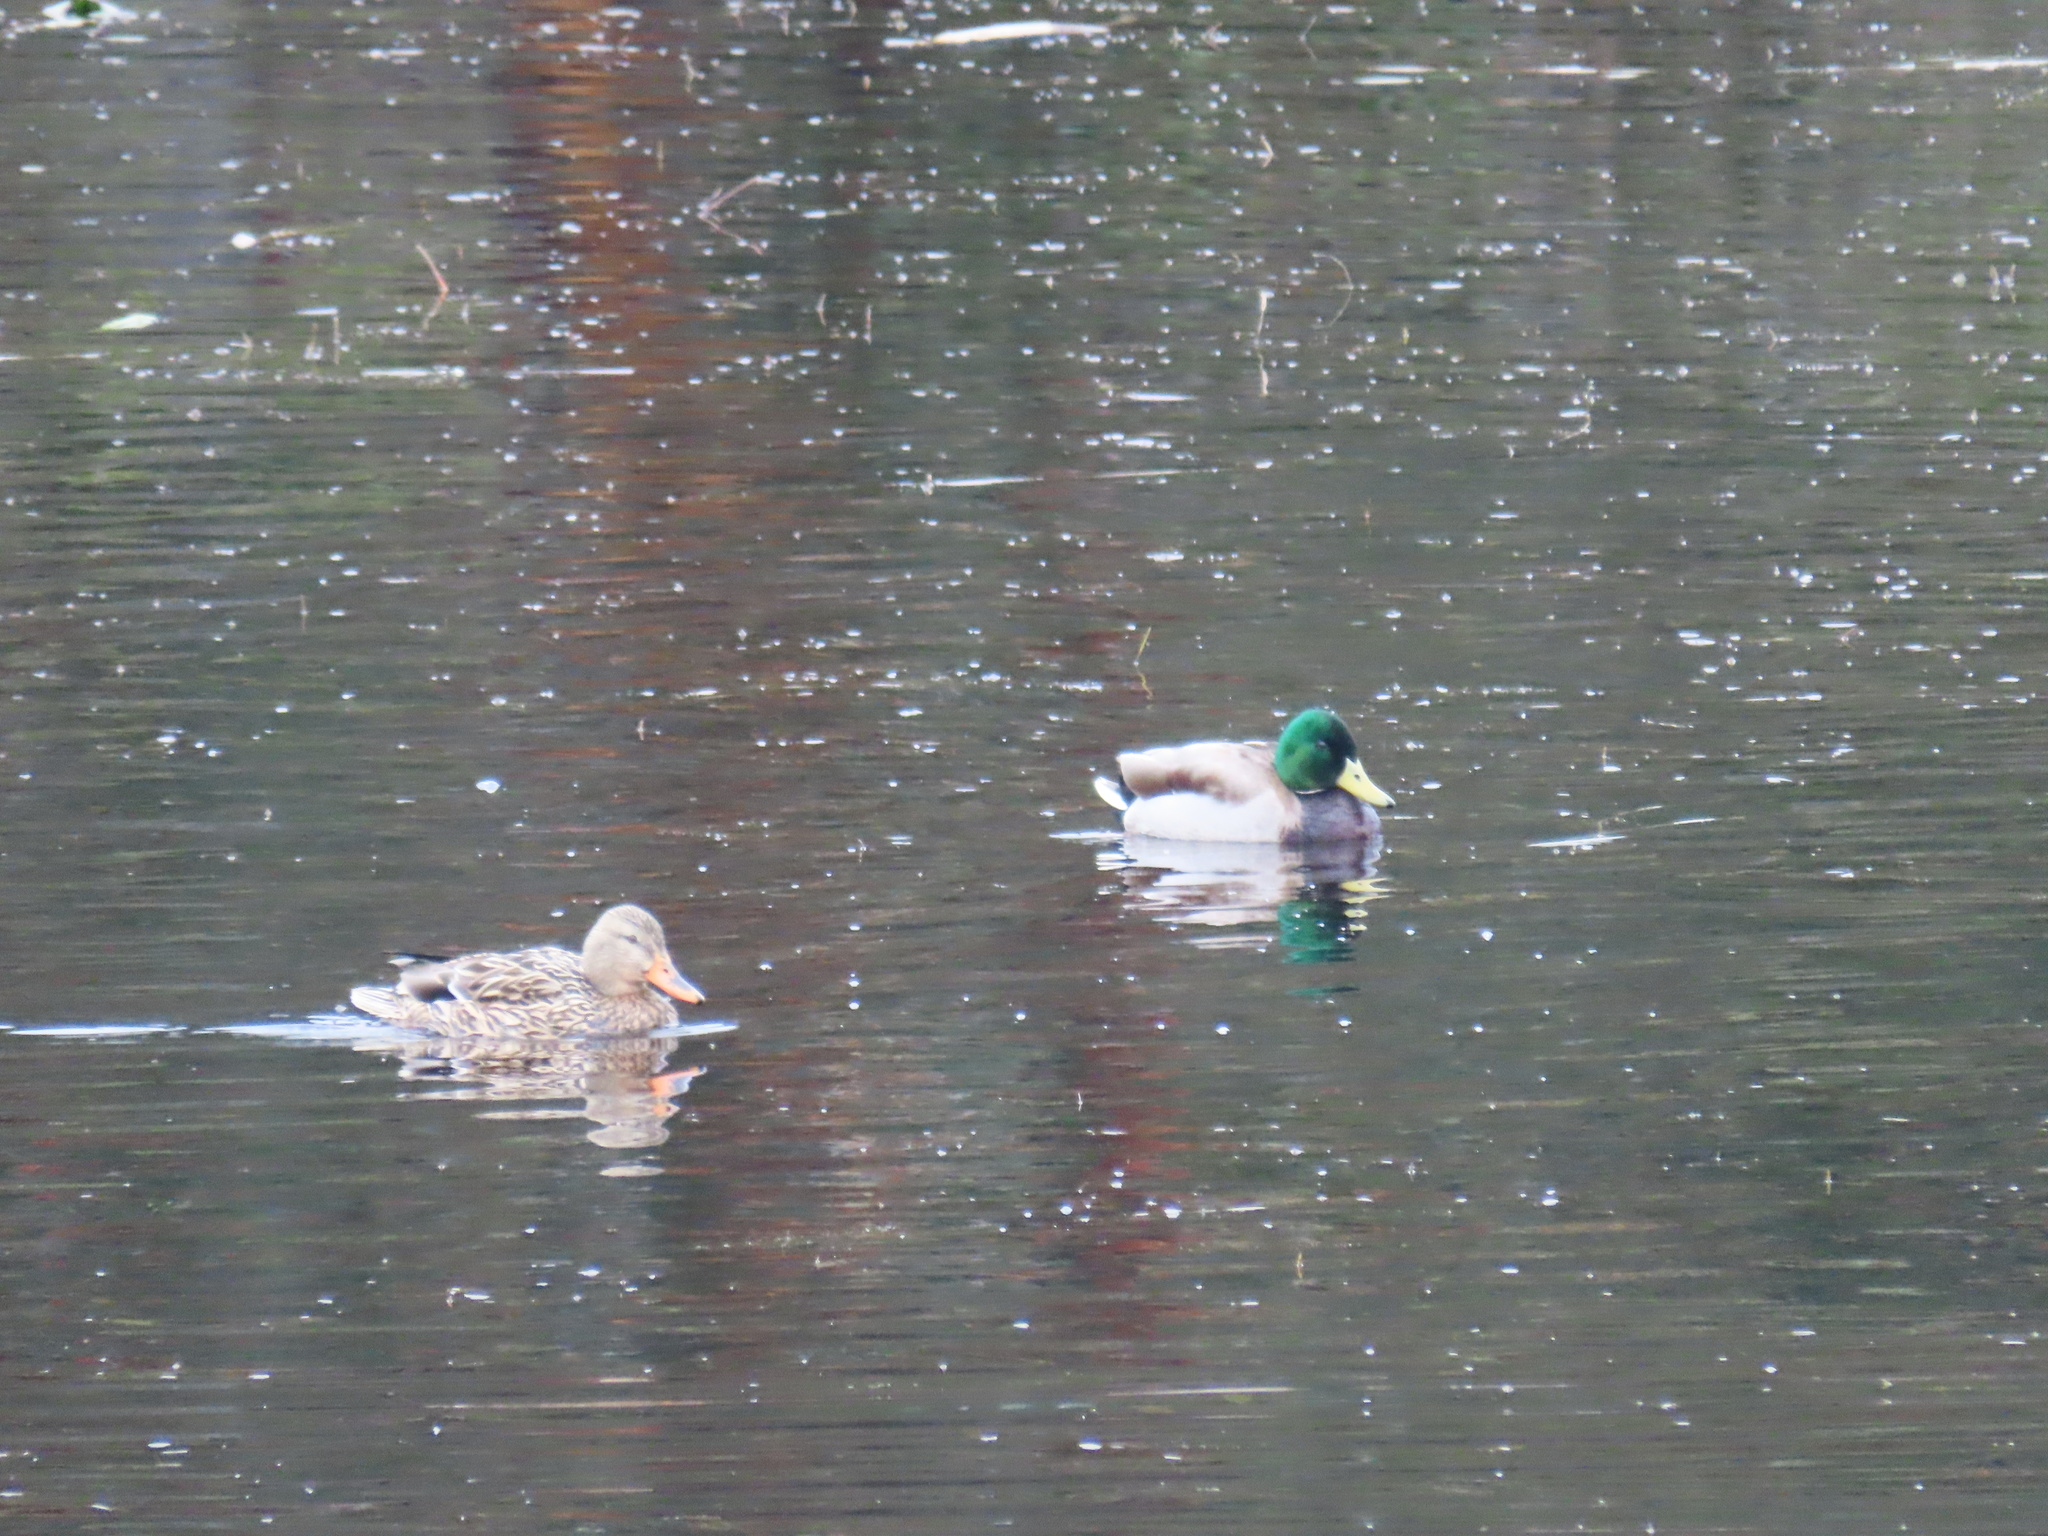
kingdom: Animalia
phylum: Chordata
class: Aves
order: Anseriformes
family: Anatidae
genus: Anas
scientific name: Anas platyrhynchos
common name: Mallard
